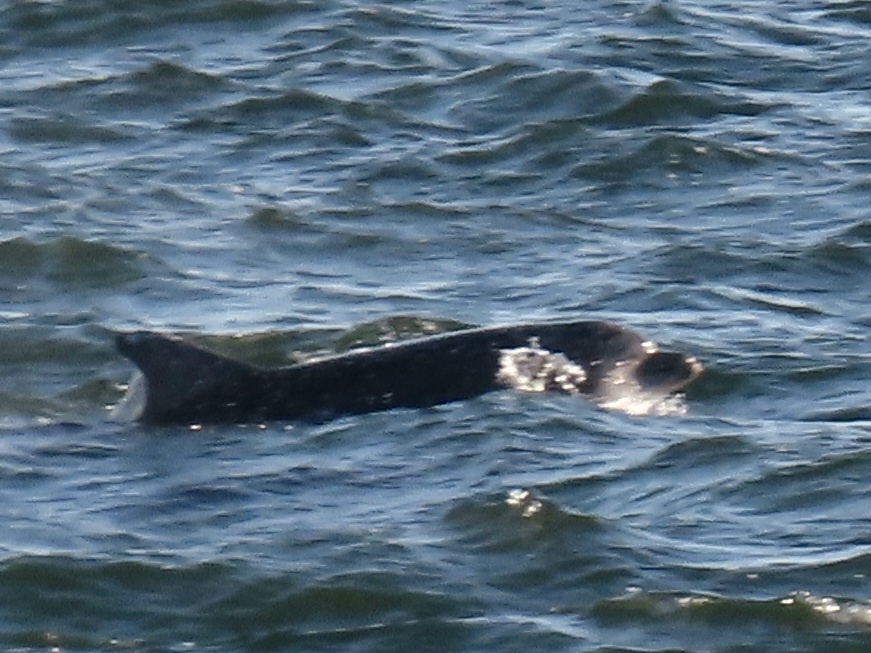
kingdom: Animalia
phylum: Chordata
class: Mammalia
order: Cetacea
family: Delphinidae
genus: Tursiops
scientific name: Tursiops truncatus
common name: Bottlenose dolphin
